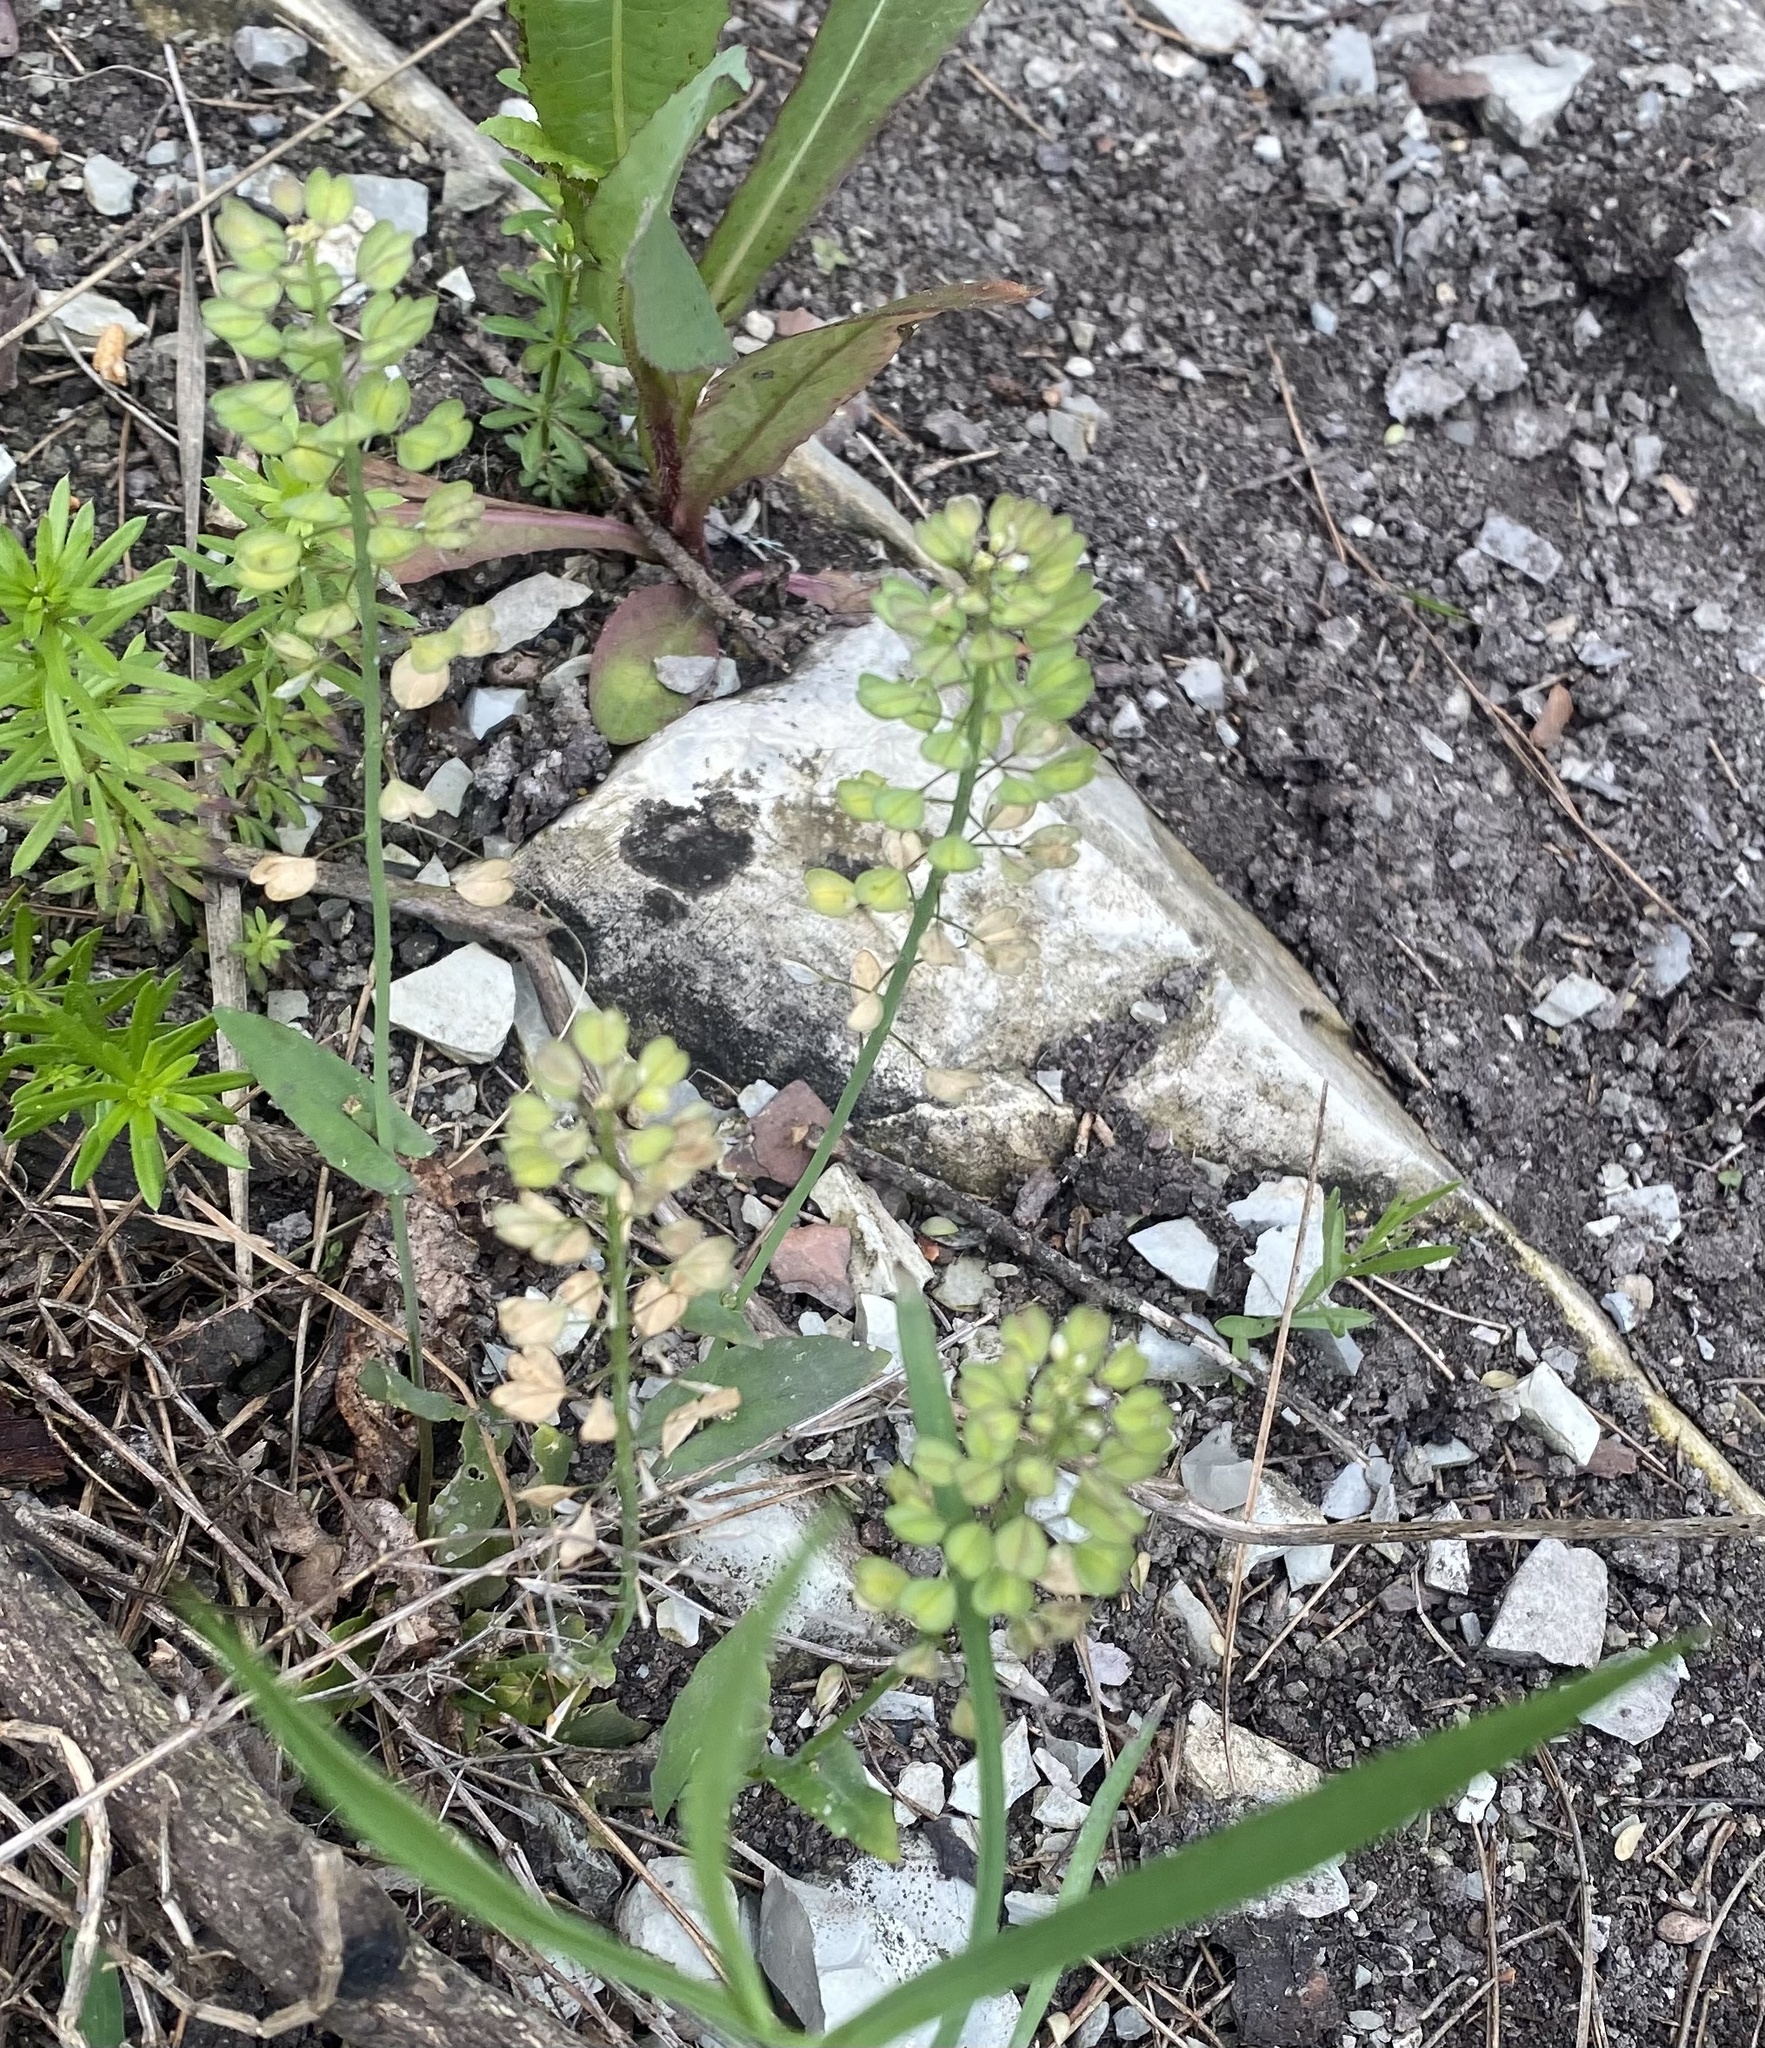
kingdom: Plantae
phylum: Tracheophyta
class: Magnoliopsida
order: Brassicales
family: Brassicaceae
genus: Noccaea
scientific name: Noccaea perfoliata
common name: Perfoliate pennycress
